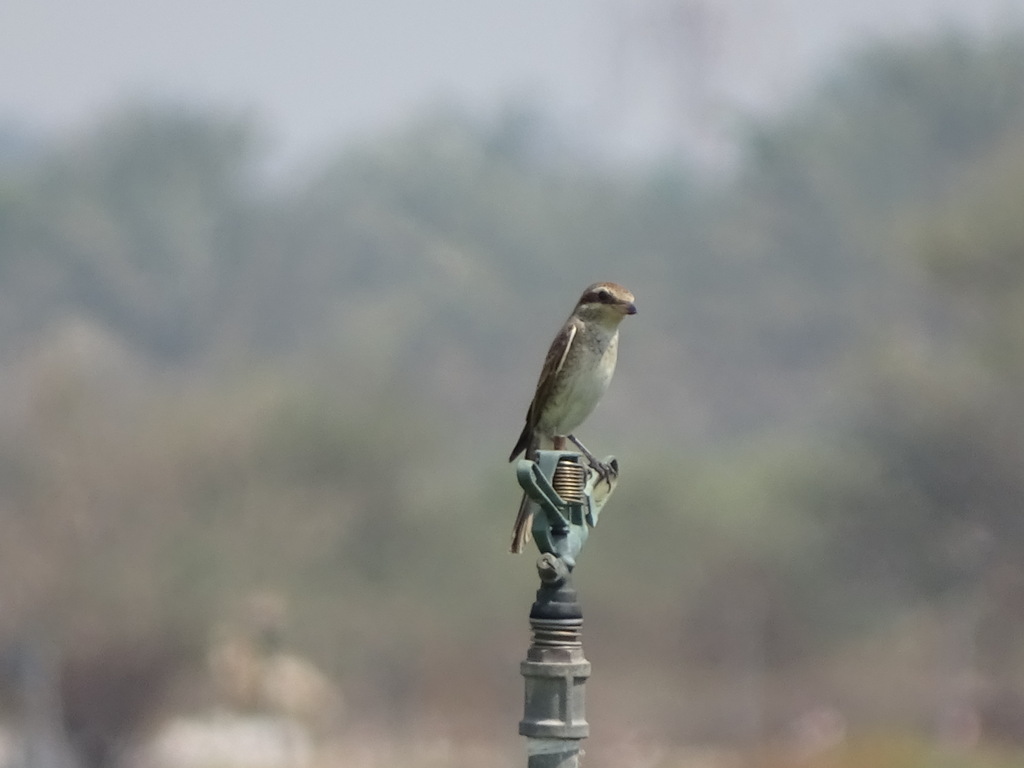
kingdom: Animalia
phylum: Chordata
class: Aves
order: Passeriformes
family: Laniidae
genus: Lanius
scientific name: Lanius collurio
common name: Red-backed shrike
